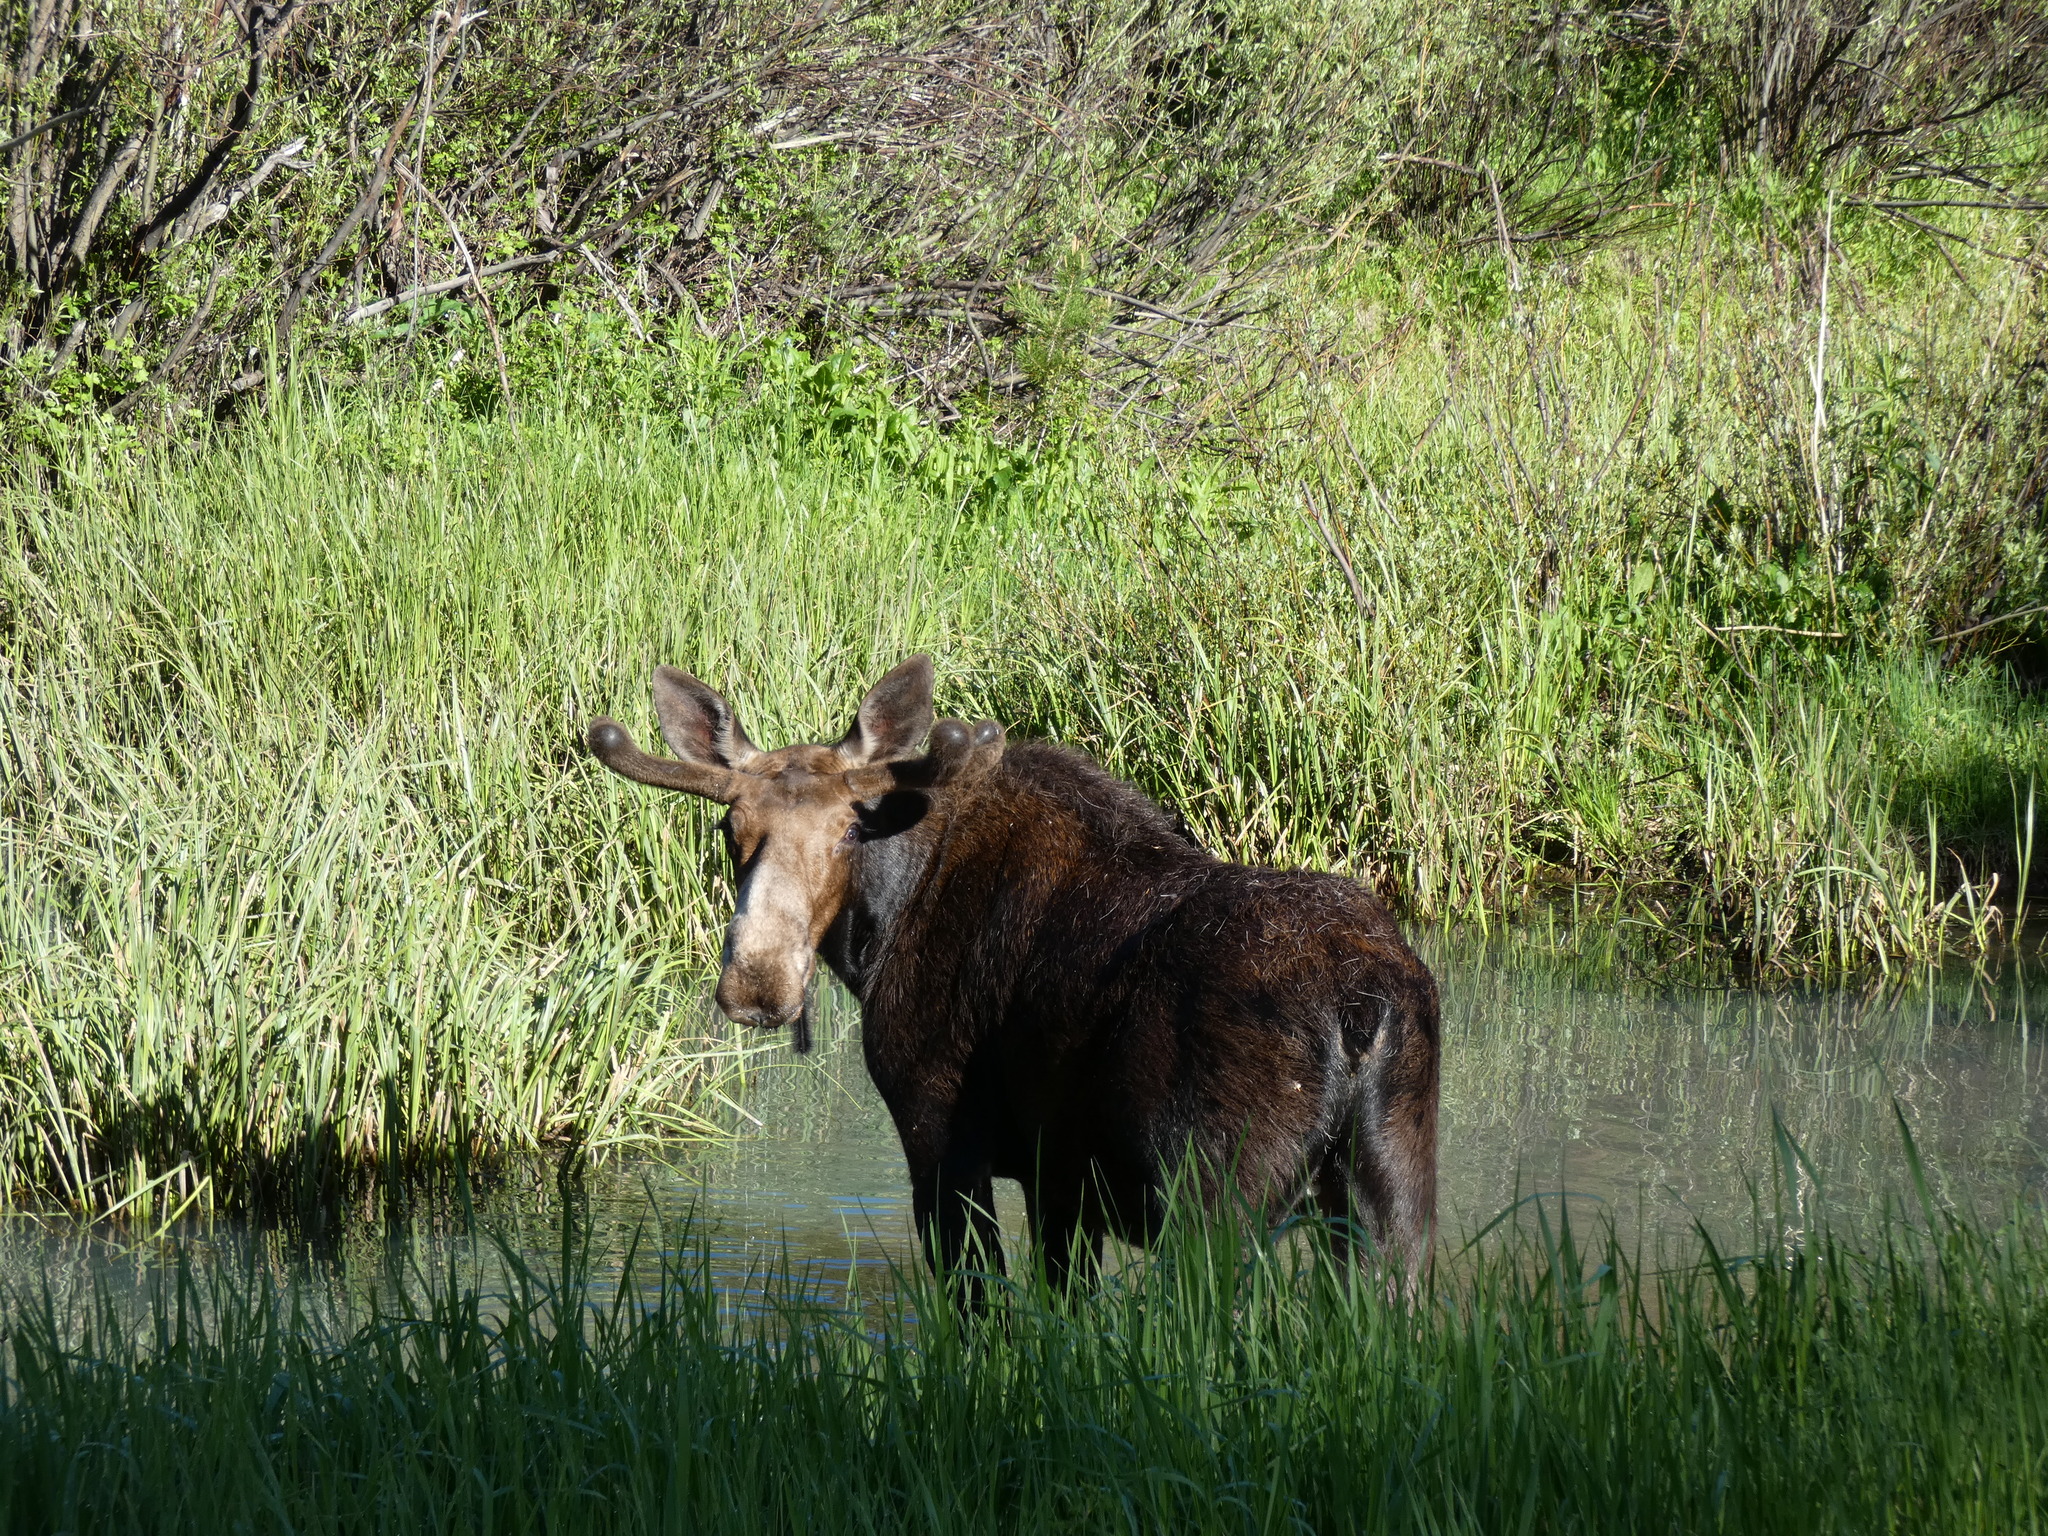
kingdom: Animalia
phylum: Chordata
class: Mammalia
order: Artiodactyla
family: Cervidae
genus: Alces
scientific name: Alces alces
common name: Moose
